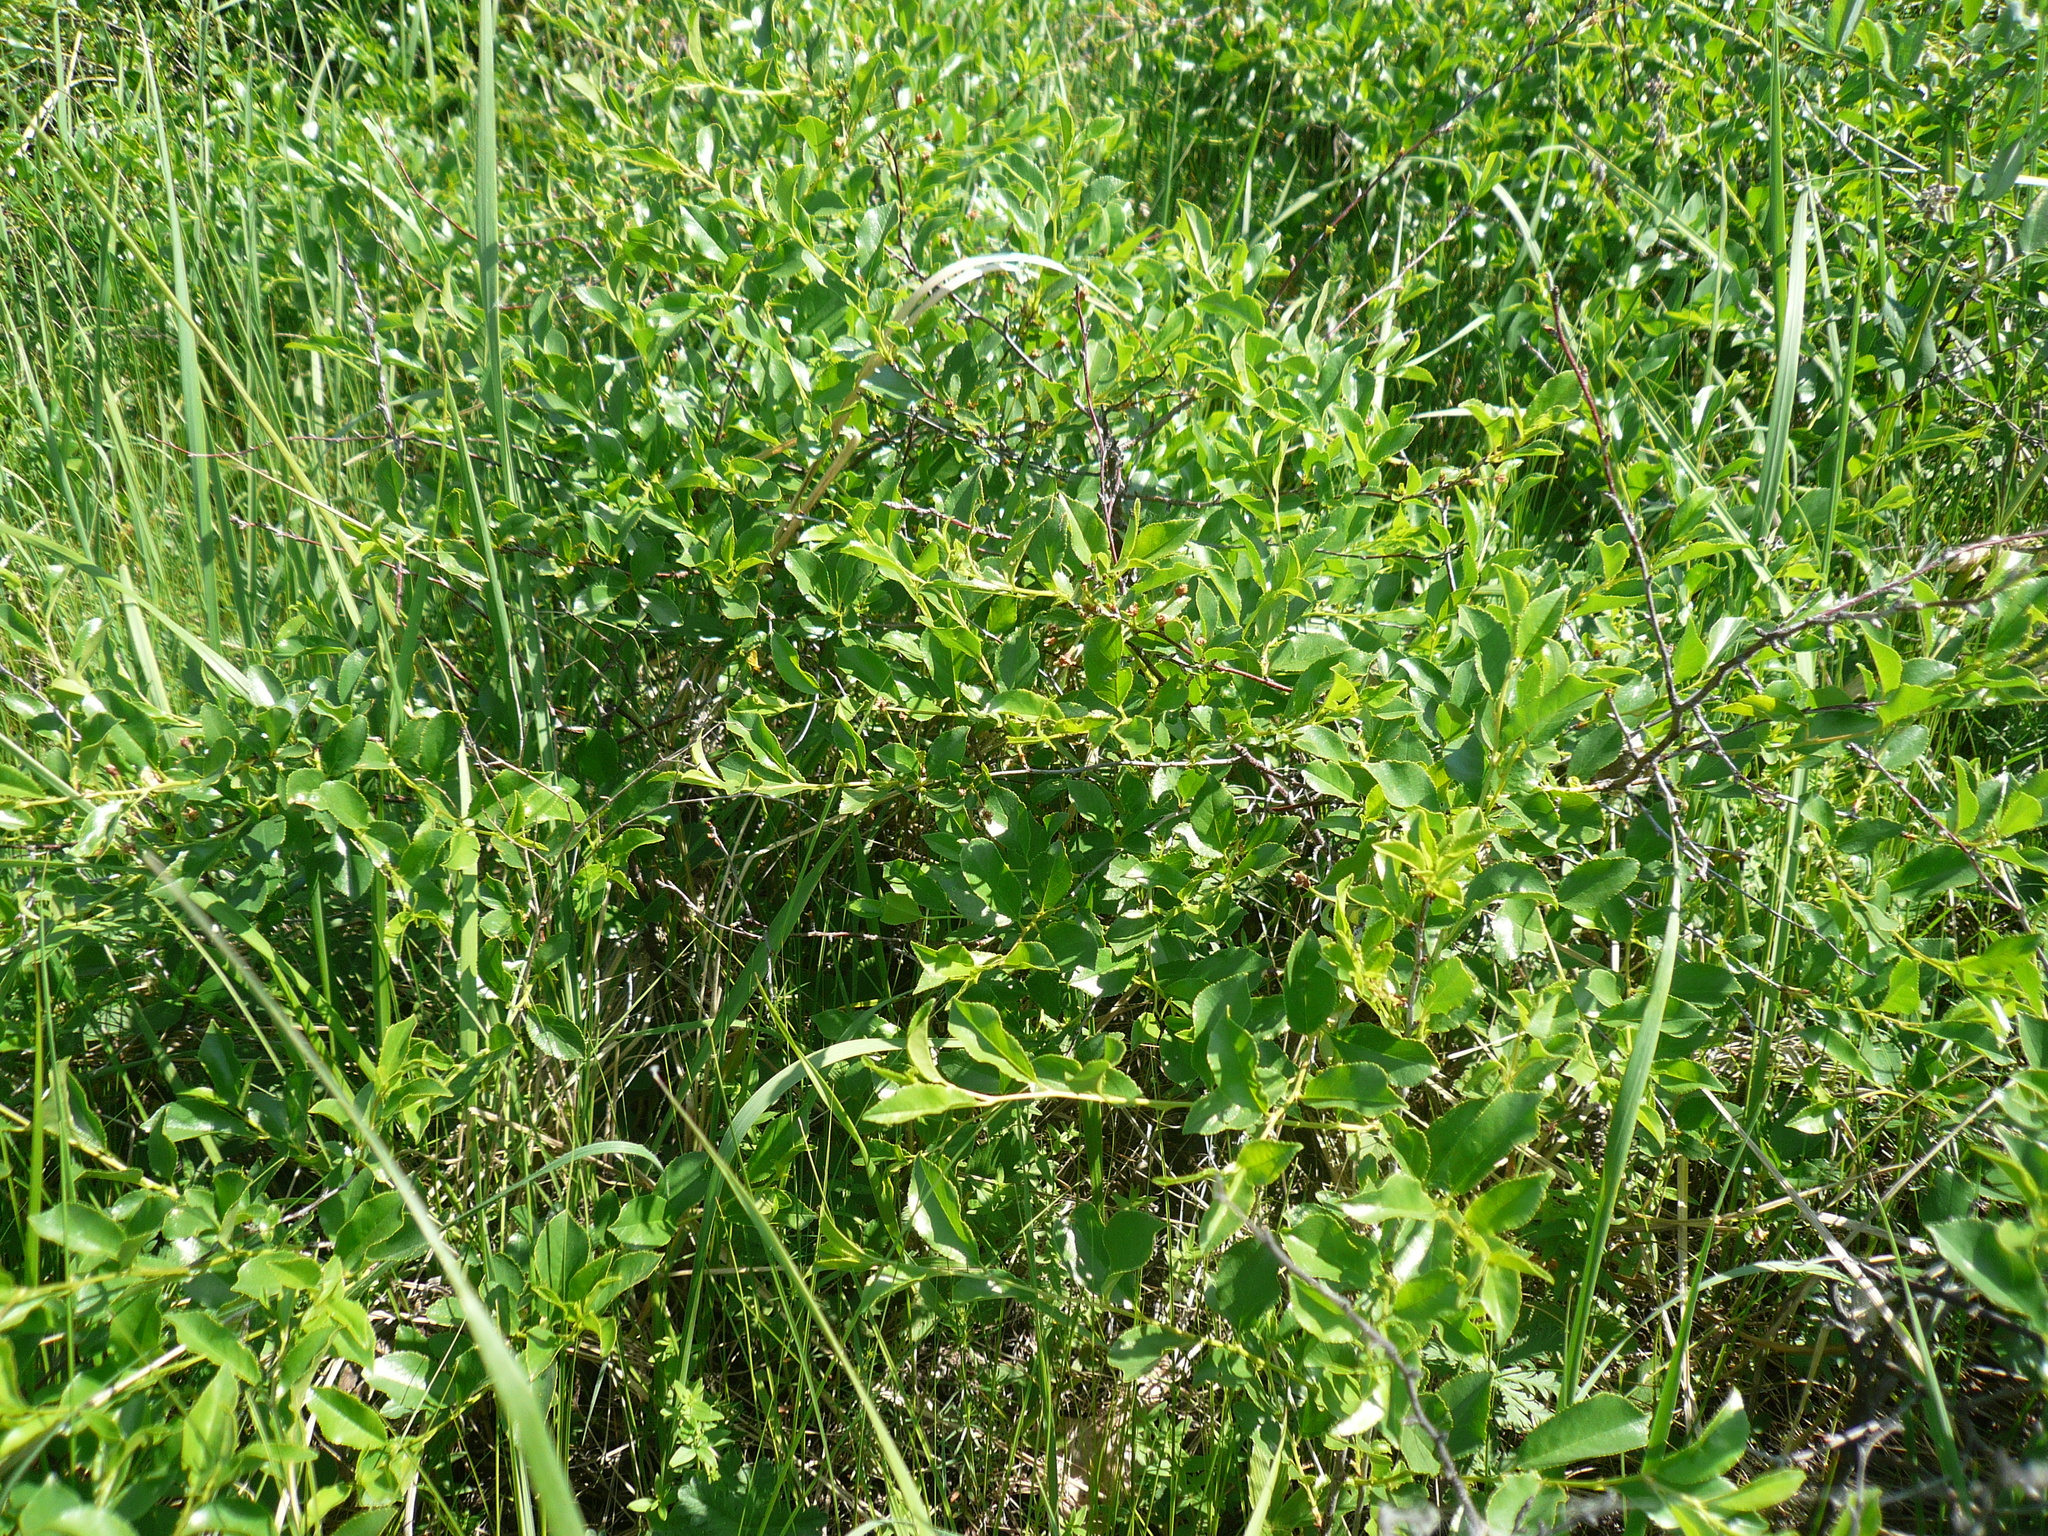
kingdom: Plantae
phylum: Tracheophyta
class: Magnoliopsida
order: Rosales
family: Rosaceae
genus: Prunus
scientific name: Prunus fruticosa
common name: European dwarf cherry
